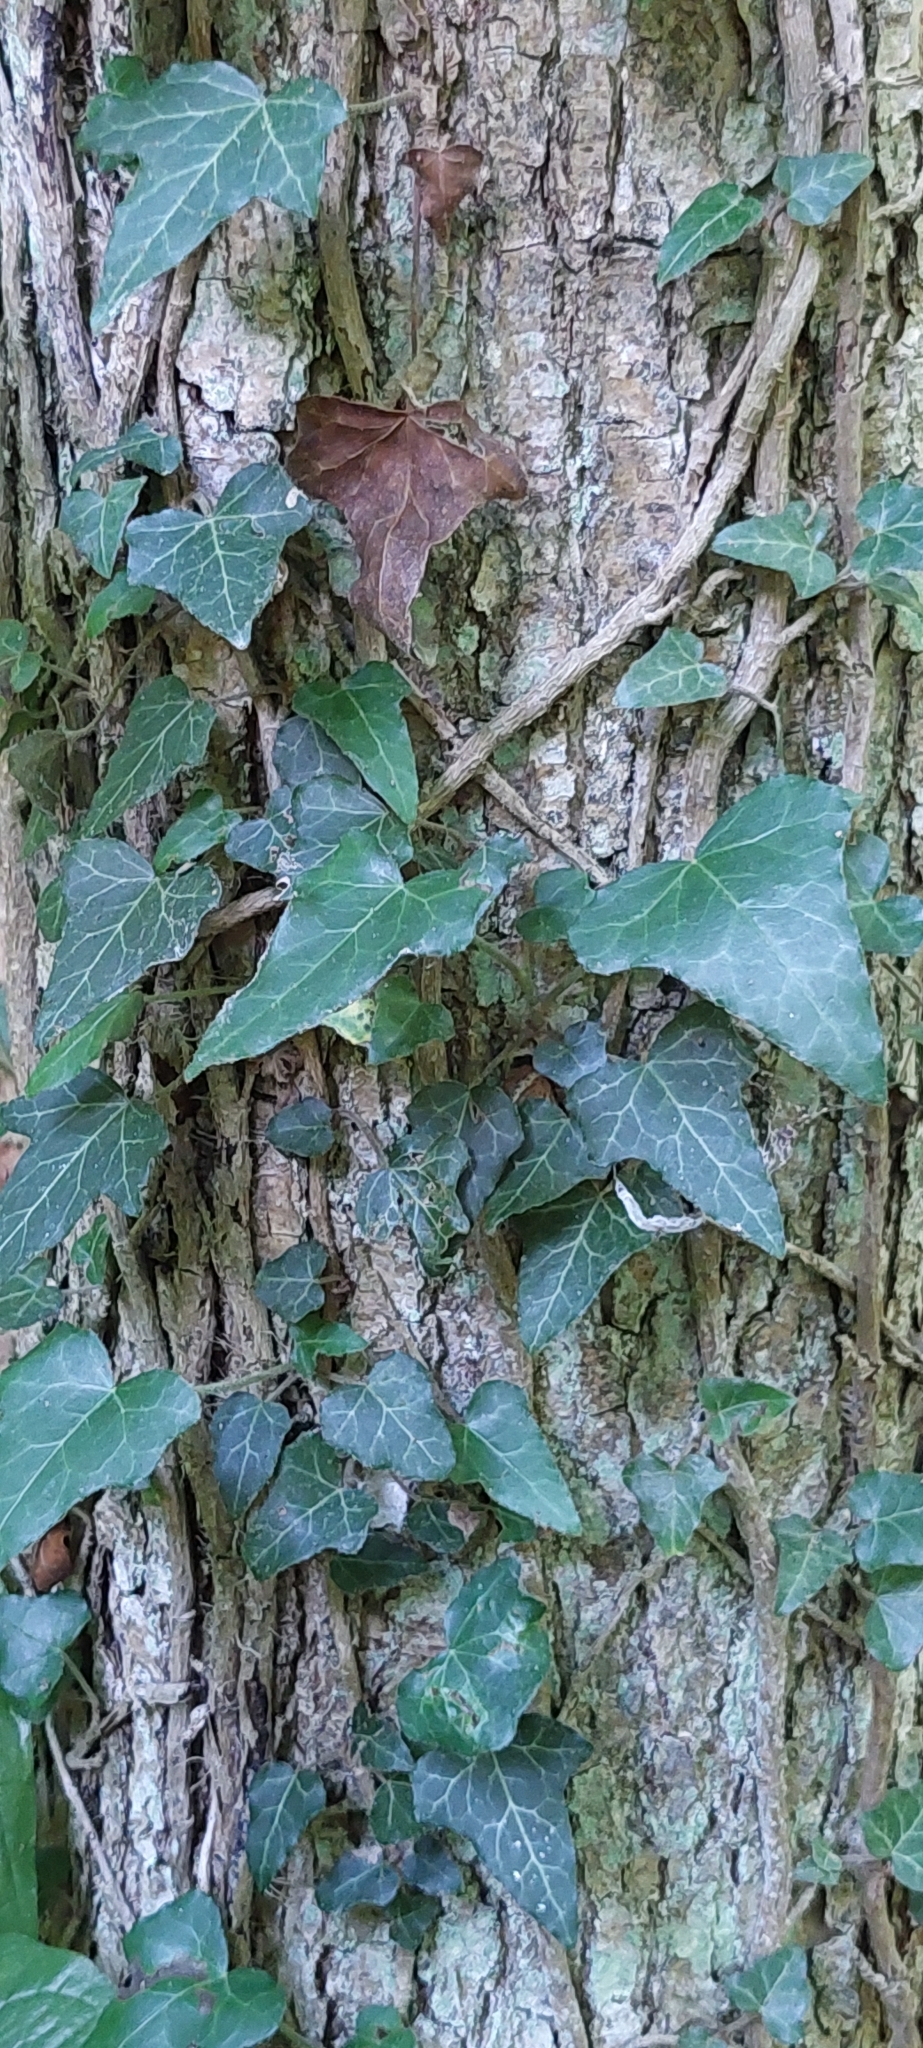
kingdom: Plantae
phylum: Tracheophyta
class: Magnoliopsida
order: Apiales
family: Araliaceae
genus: Hedera
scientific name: Hedera helix
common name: Ivy
